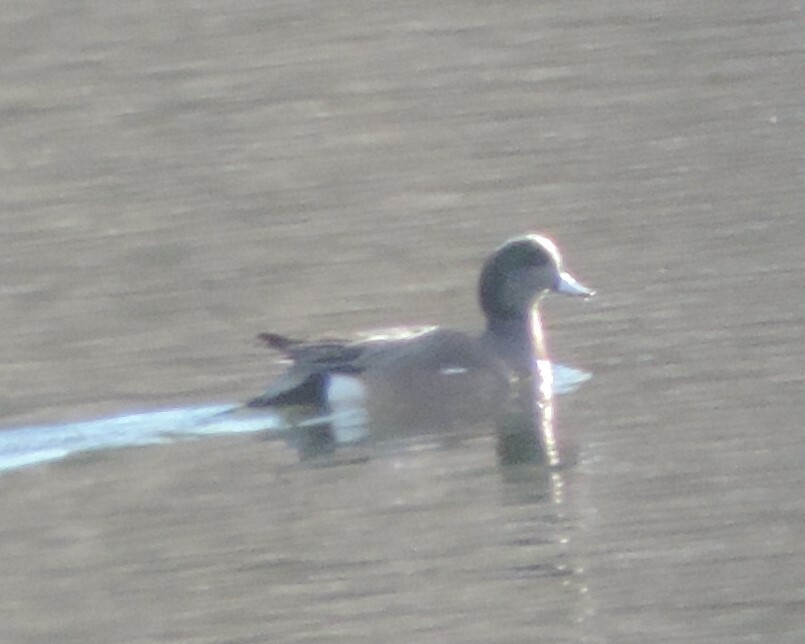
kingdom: Animalia
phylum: Chordata
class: Aves
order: Anseriformes
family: Anatidae
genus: Mareca
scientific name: Mareca americana
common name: American wigeon
